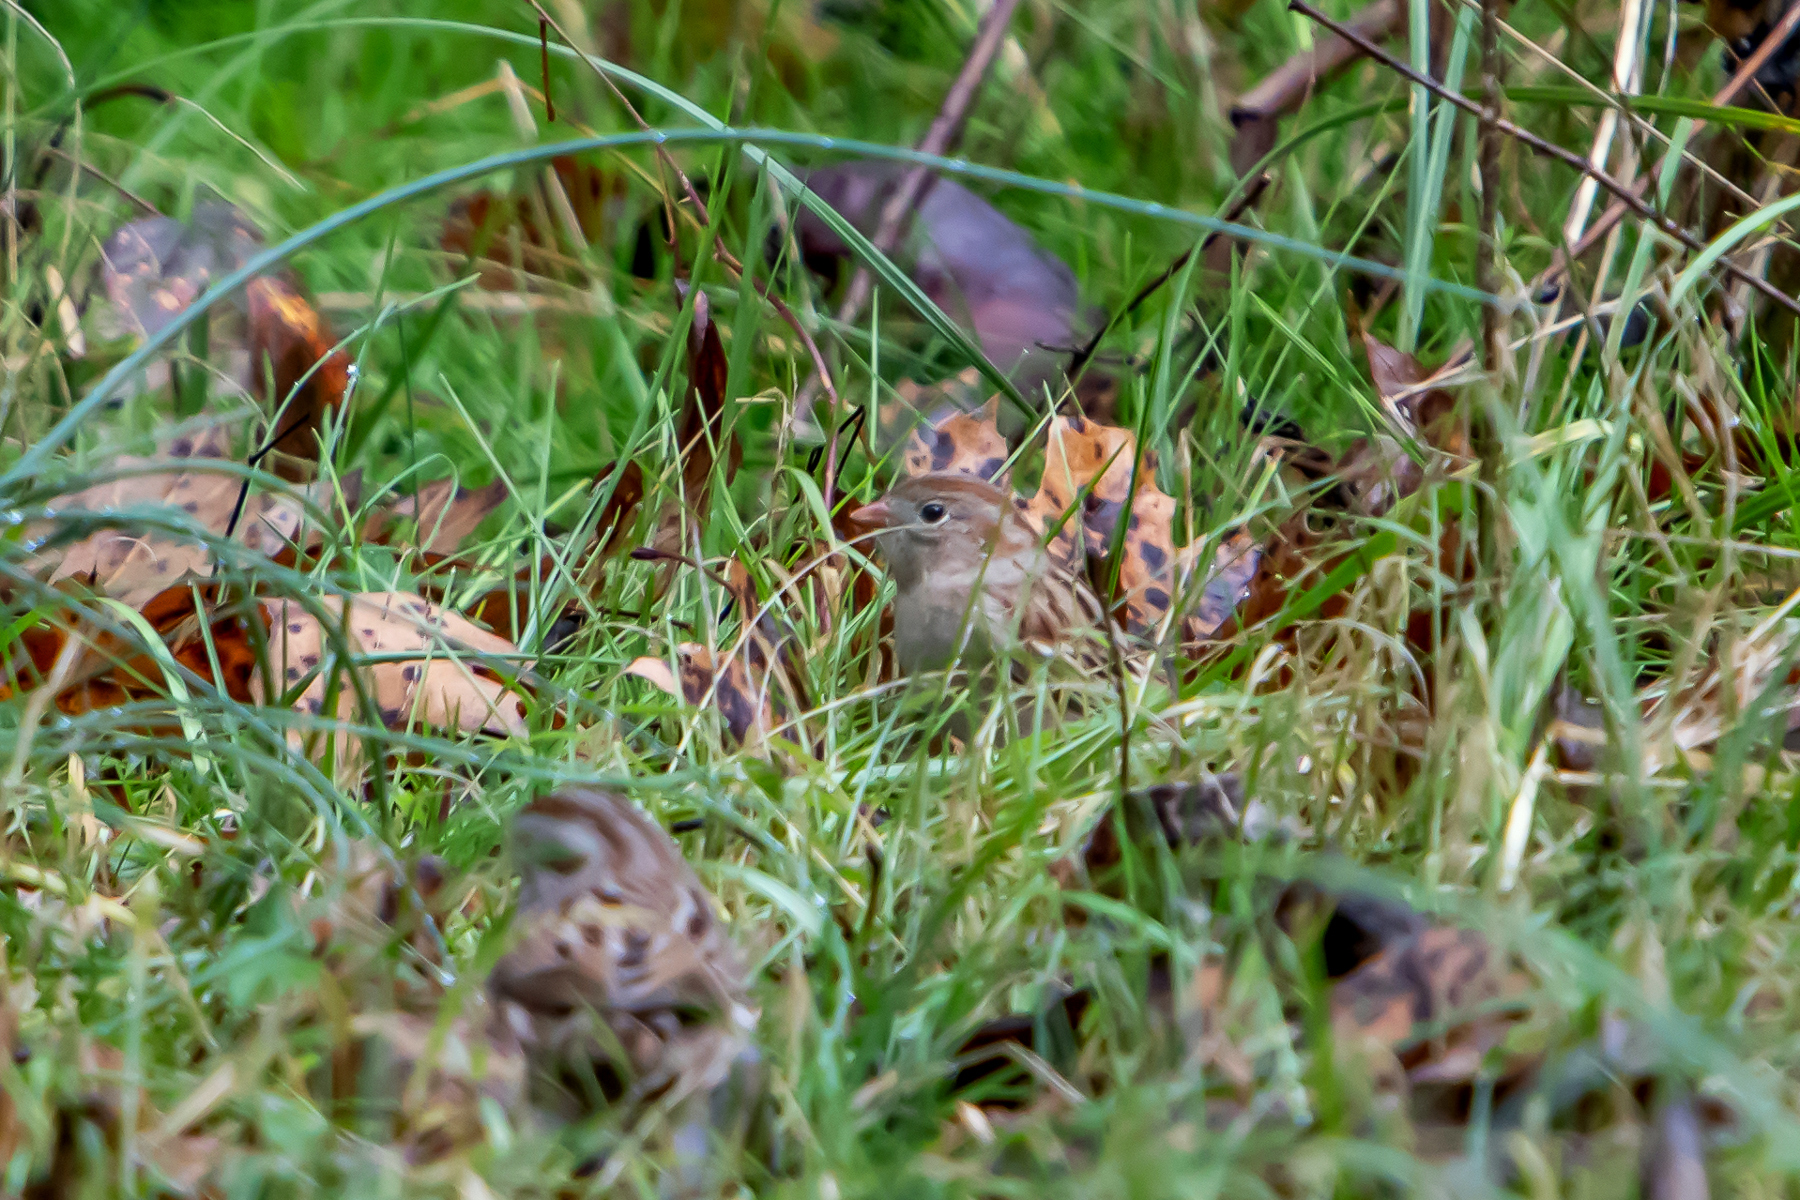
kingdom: Animalia
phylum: Chordata
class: Aves
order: Passeriformes
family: Passerellidae
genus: Spizella
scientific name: Spizella pusilla
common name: Field sparrow
